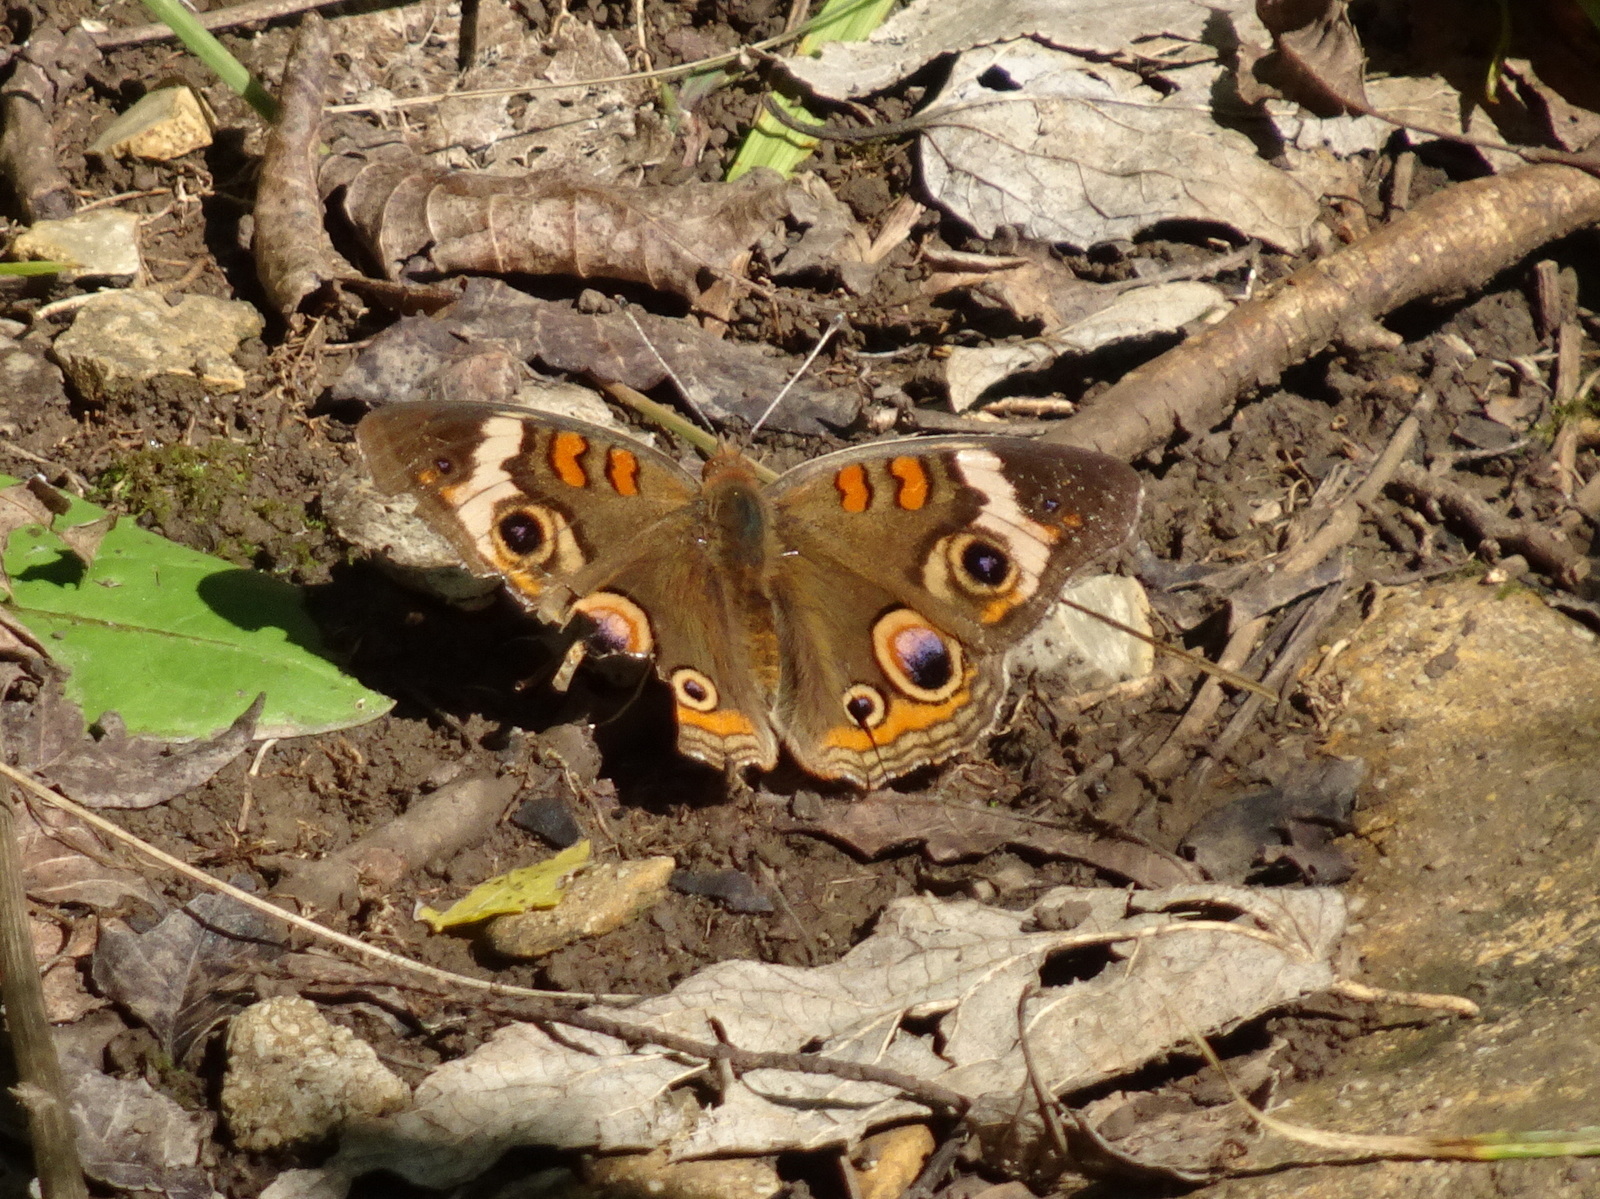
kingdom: Animalia
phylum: Arthropoda
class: Insecta
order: Lepidoptera
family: Nymphalidae
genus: Junonia
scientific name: Junonia coenia
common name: Common buckeye
